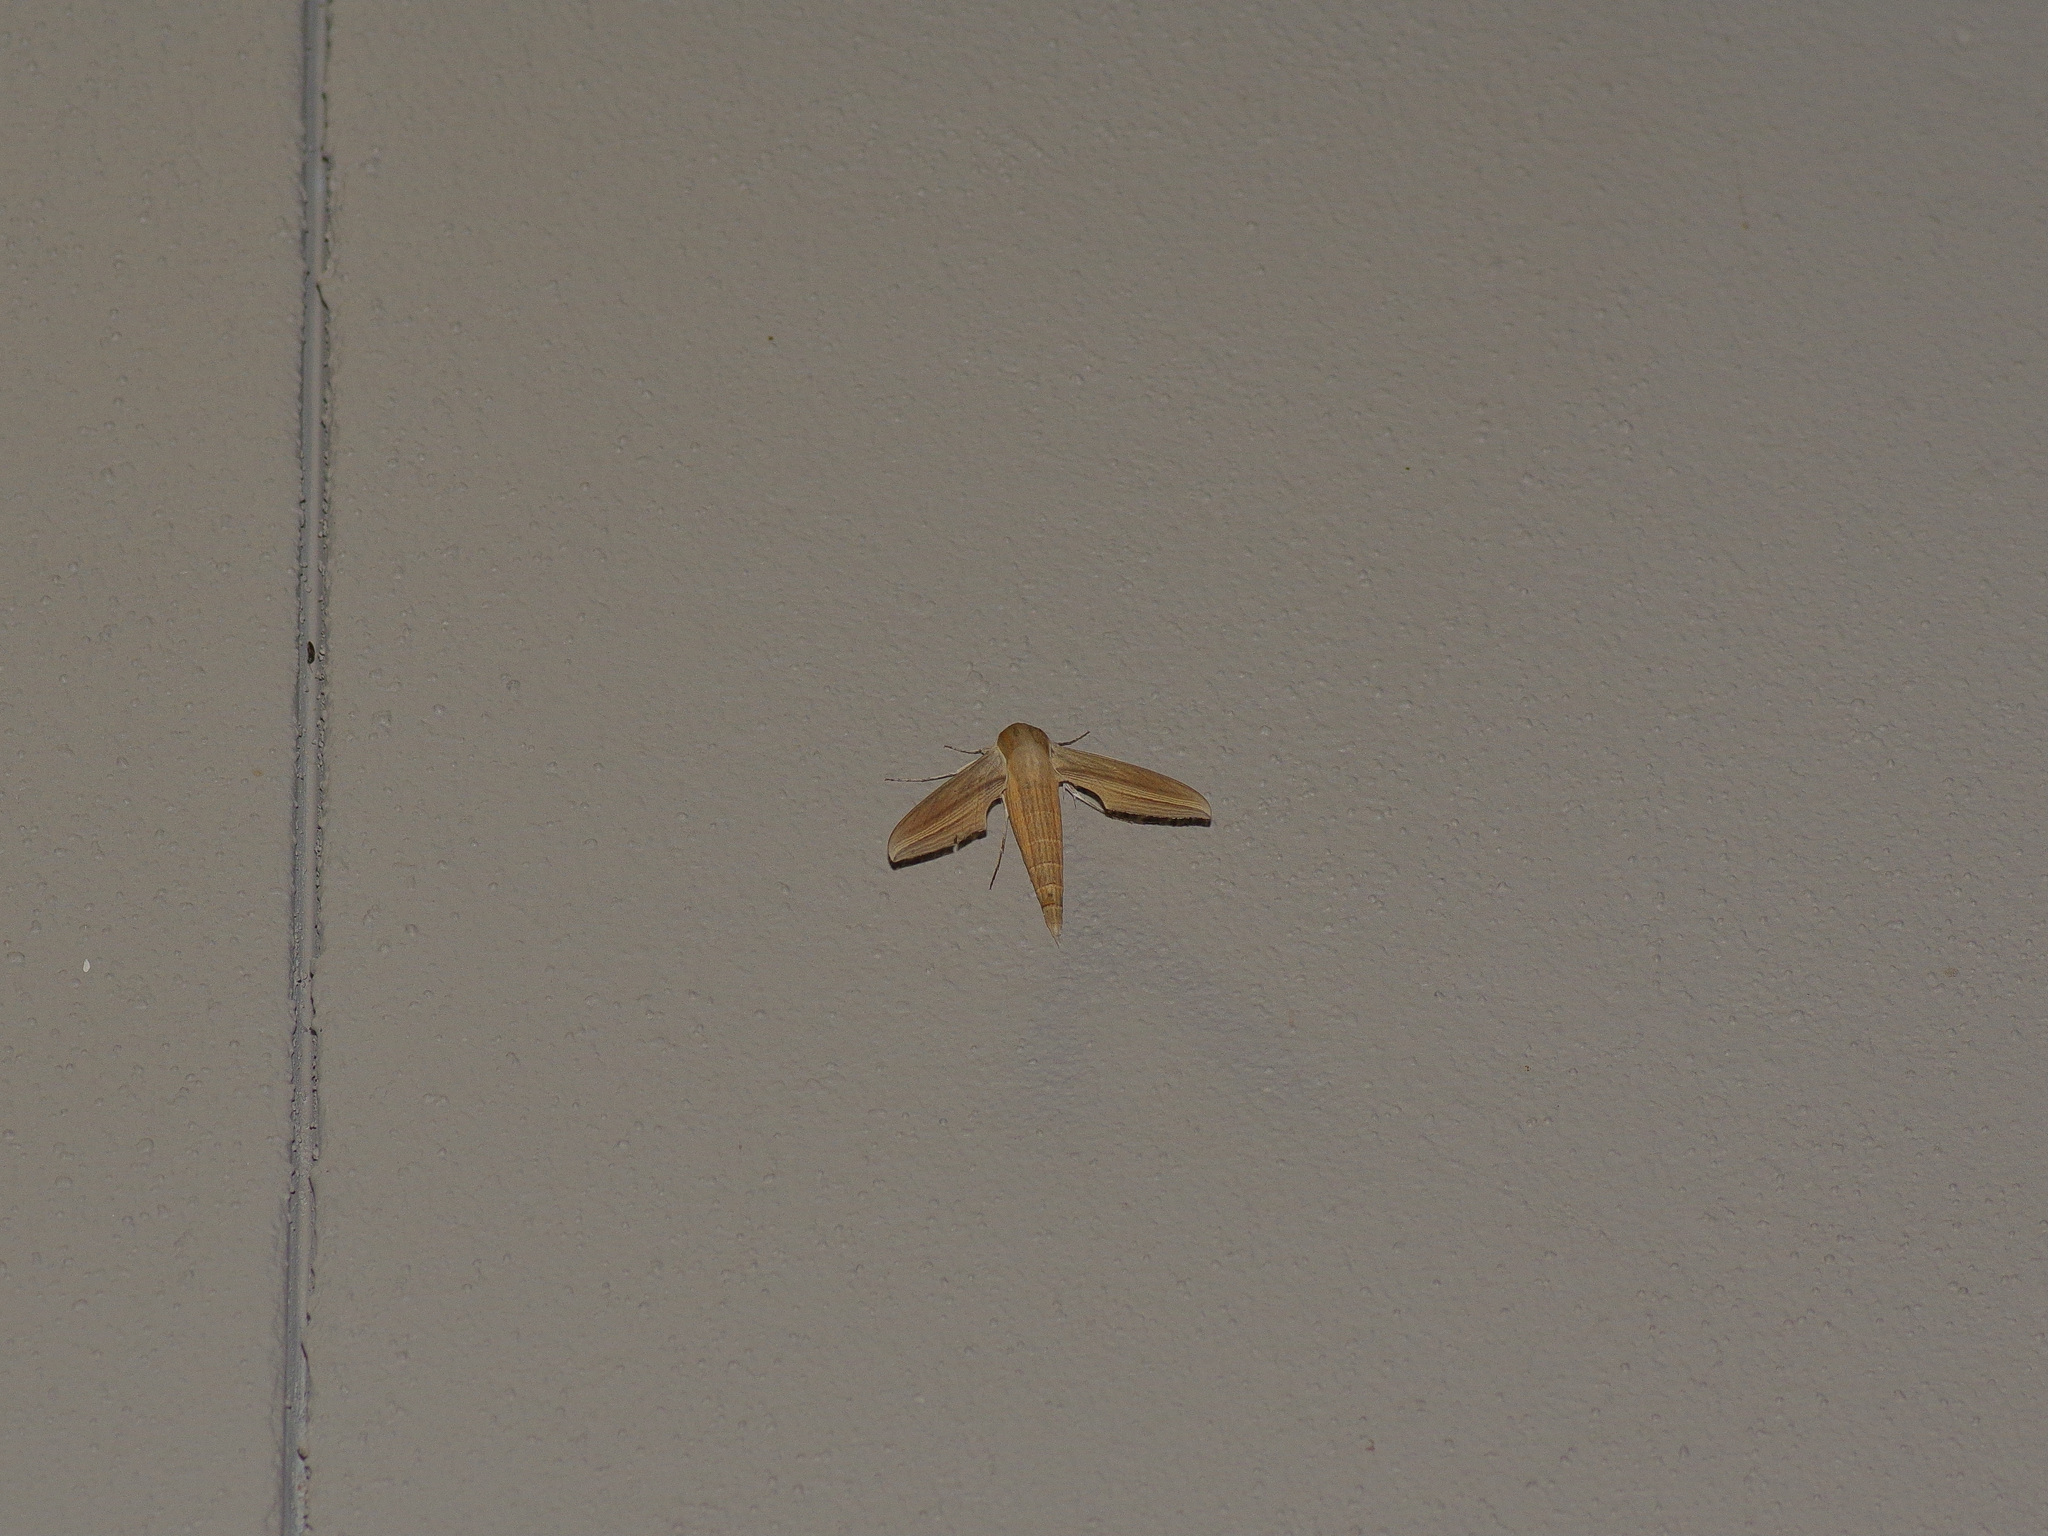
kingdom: Animalia
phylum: Arthropoda
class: Insecta
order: Lepidoptera
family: Sphingidae
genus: Xylophanes
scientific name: Xylophanes tersa
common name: Tersa sphinx
